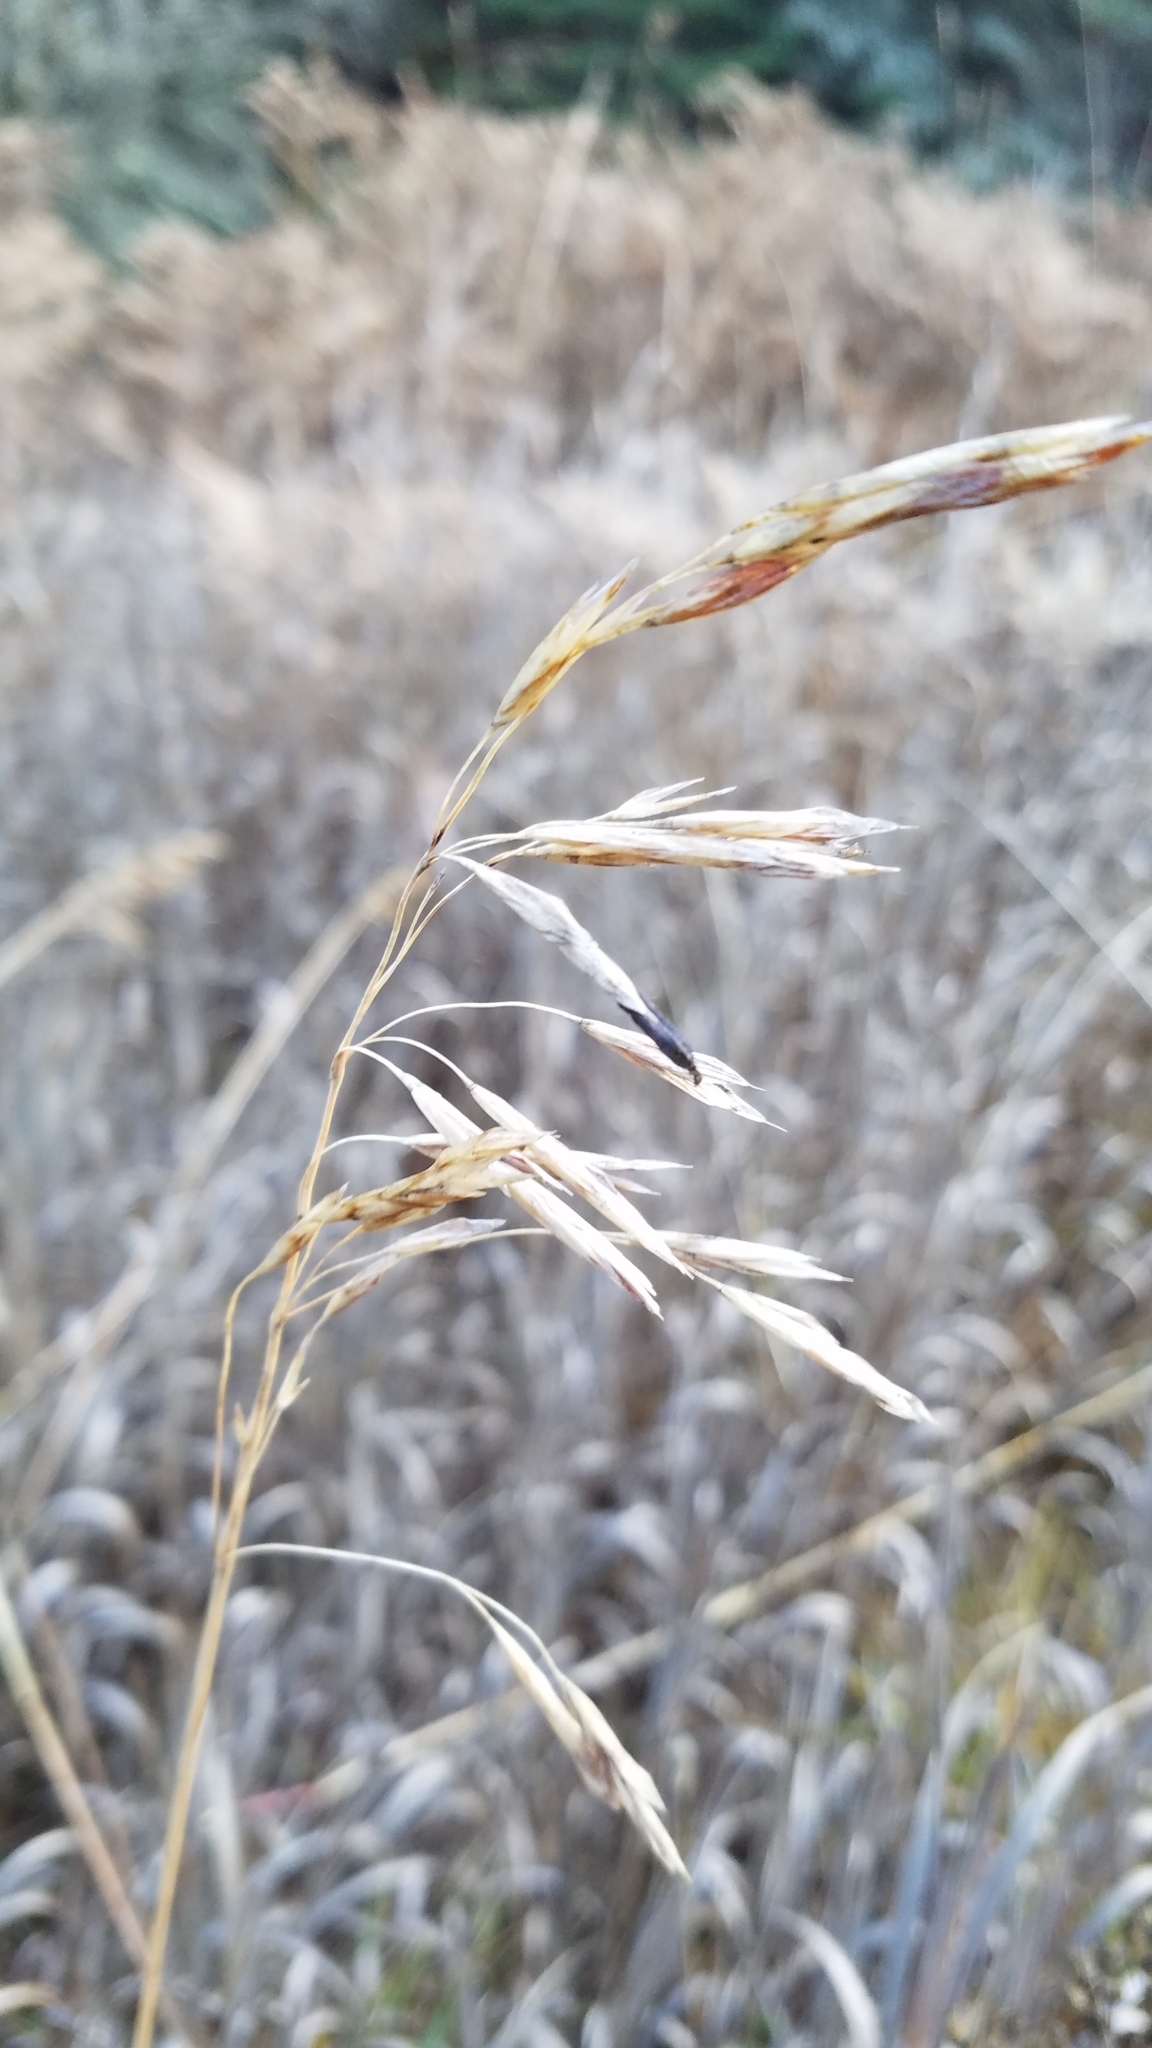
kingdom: Plantae
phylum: Tracheophyta
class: Liliopsida
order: Poales
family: Poaceae
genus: Bromus
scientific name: Bromus inermis
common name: Smooth brome
